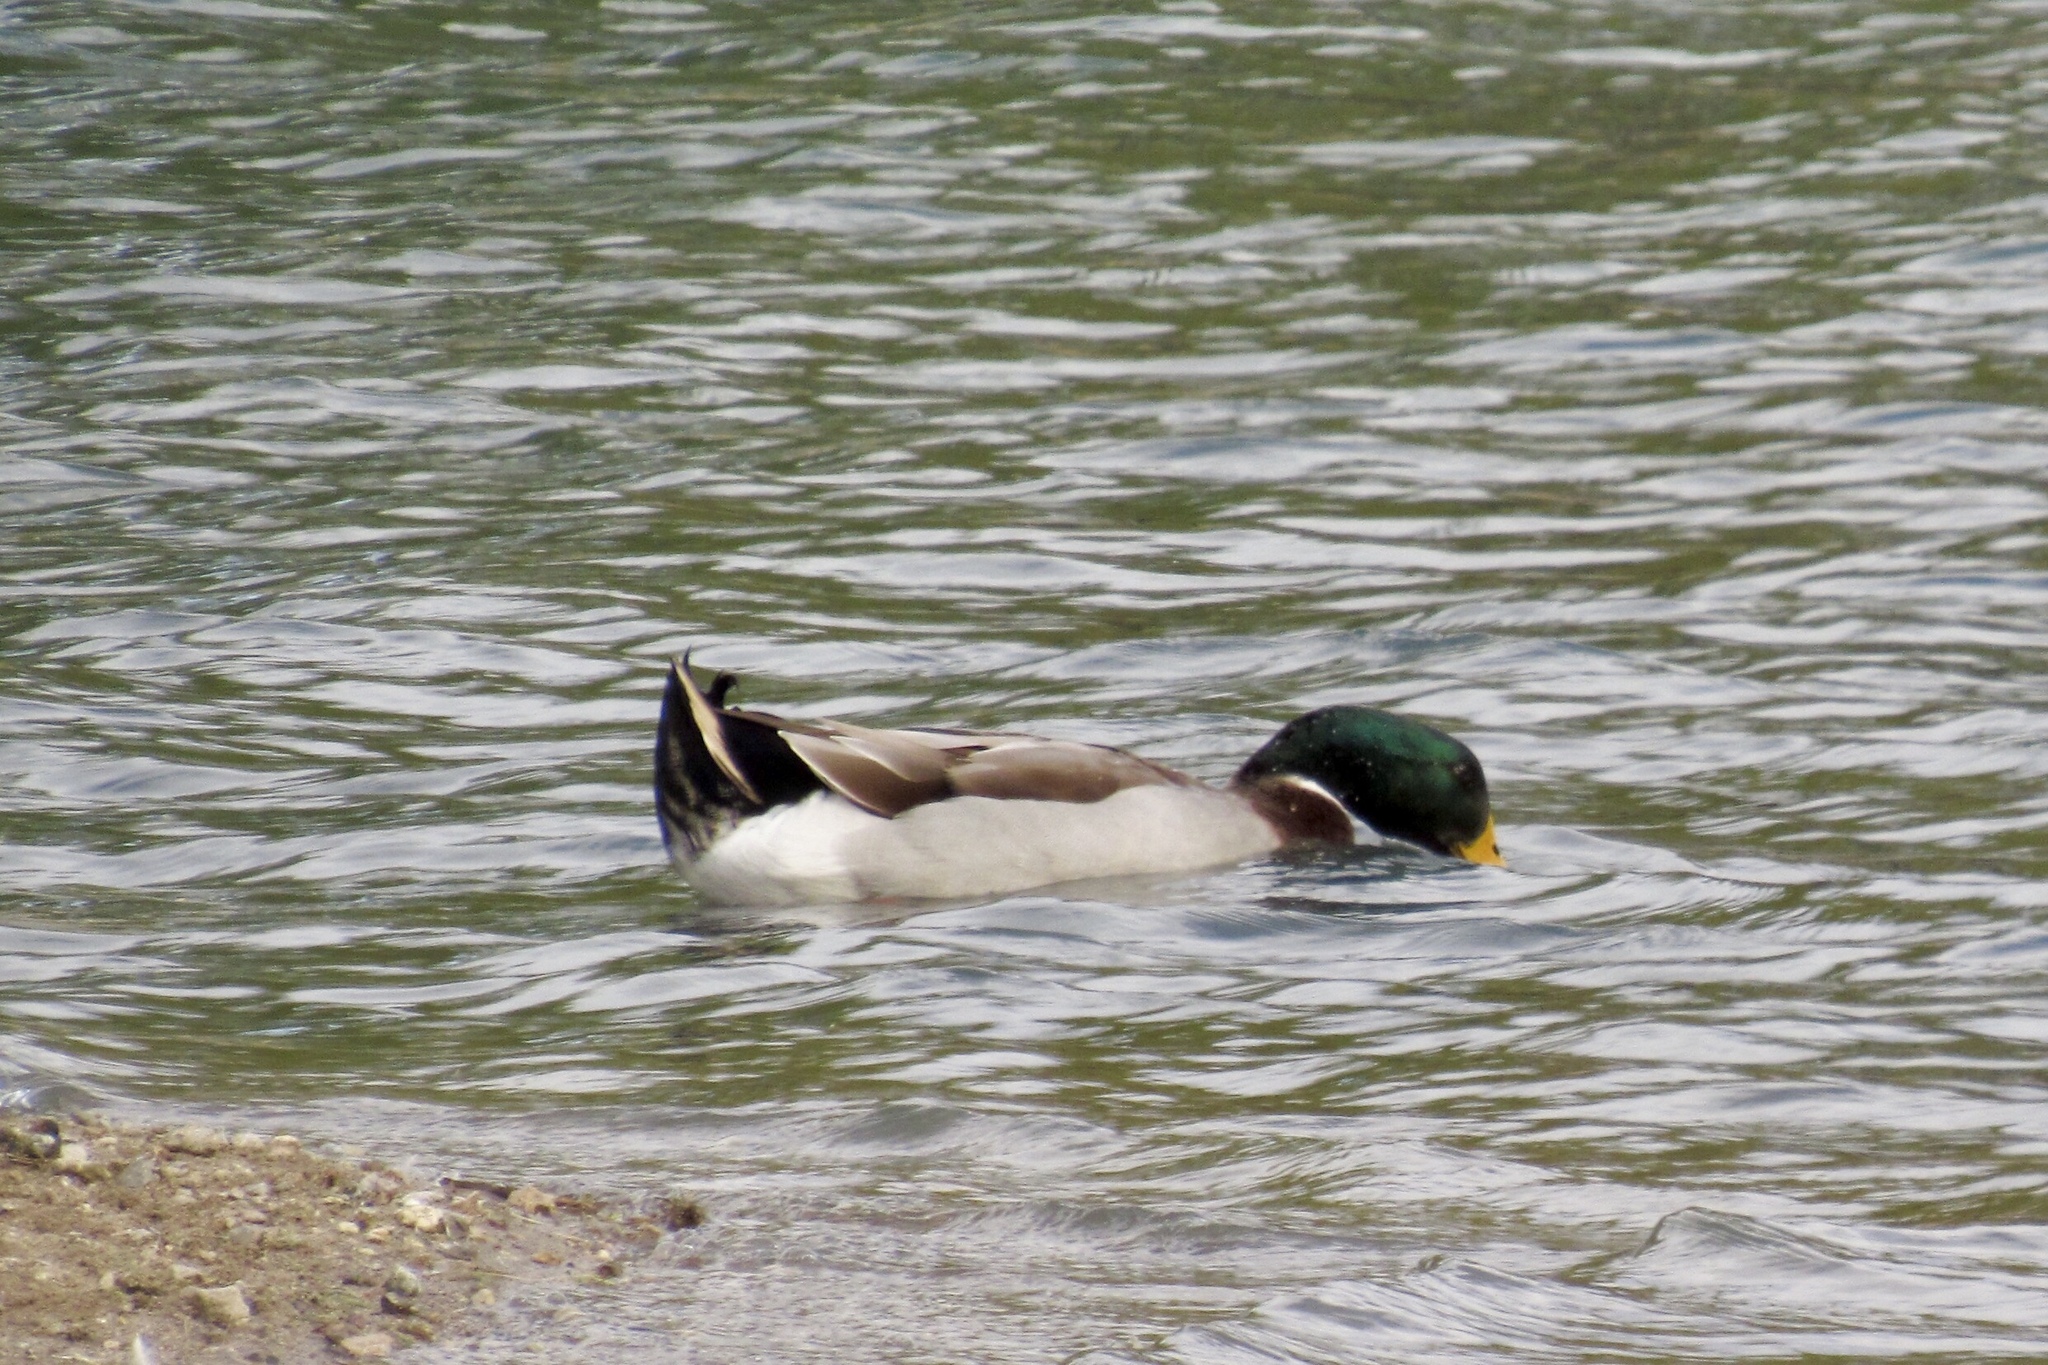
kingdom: Animalia
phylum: Chordata
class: Aves
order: Anseriformes
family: Anatidae
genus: Anas
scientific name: Anas platyrhynchos
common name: Mallard
